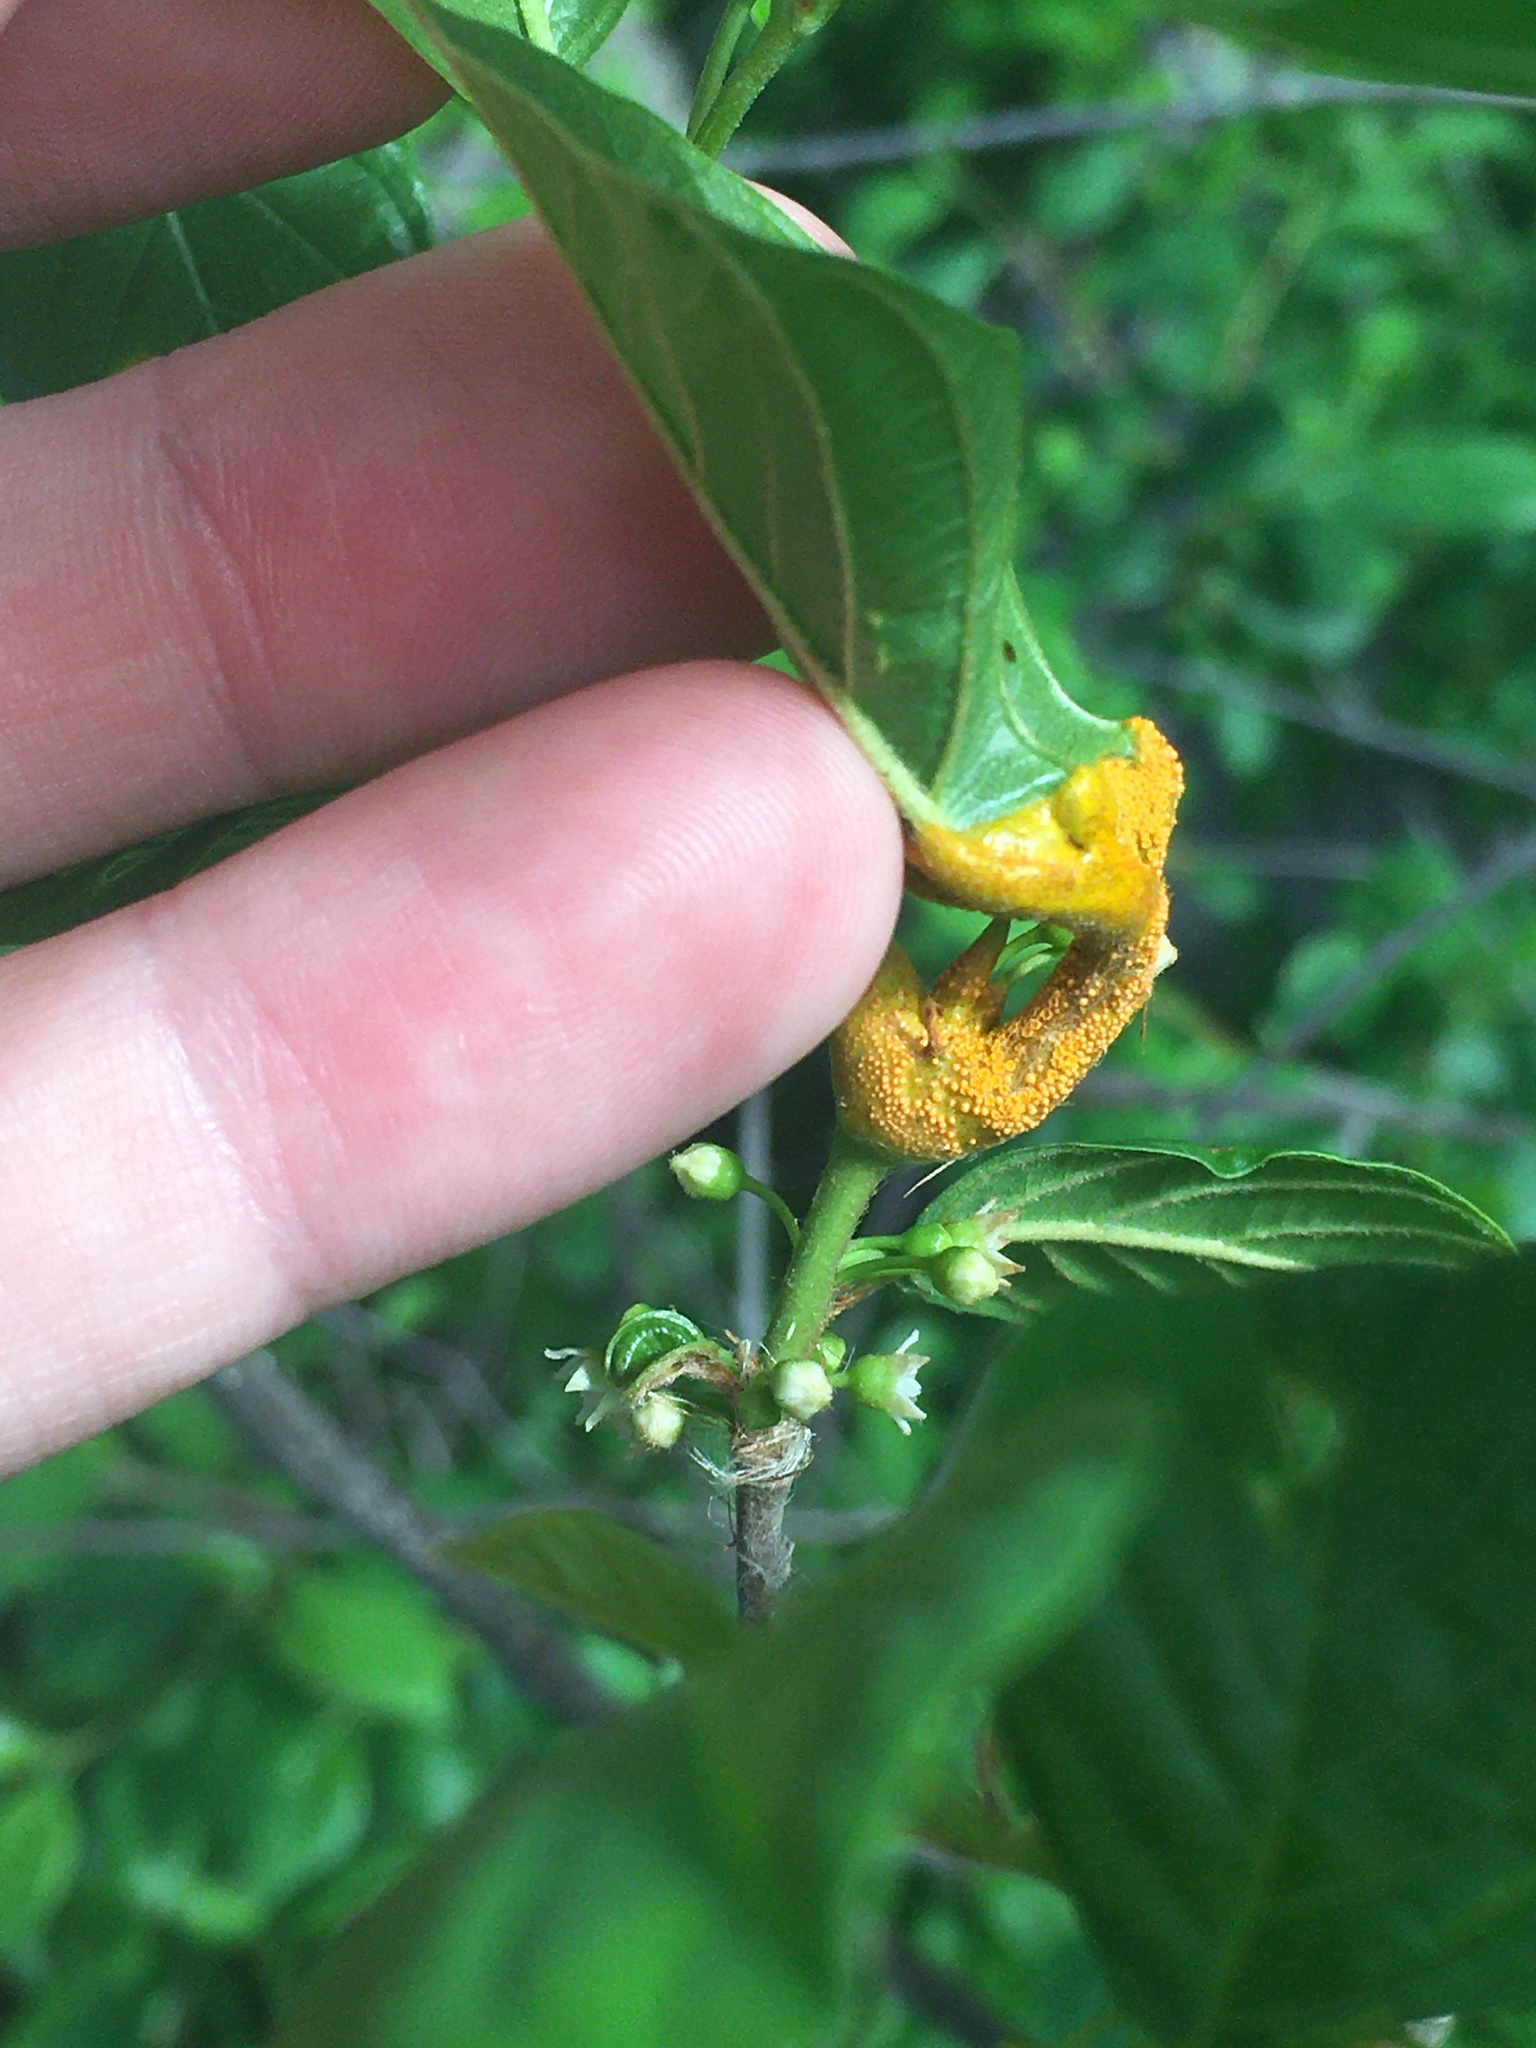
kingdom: Fungi
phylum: Basidiomycota
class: Pucciniomycetes
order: Pucciniales
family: Pucciniaceae
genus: Puccinia
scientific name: Puccinia coronata
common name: Crown rust
